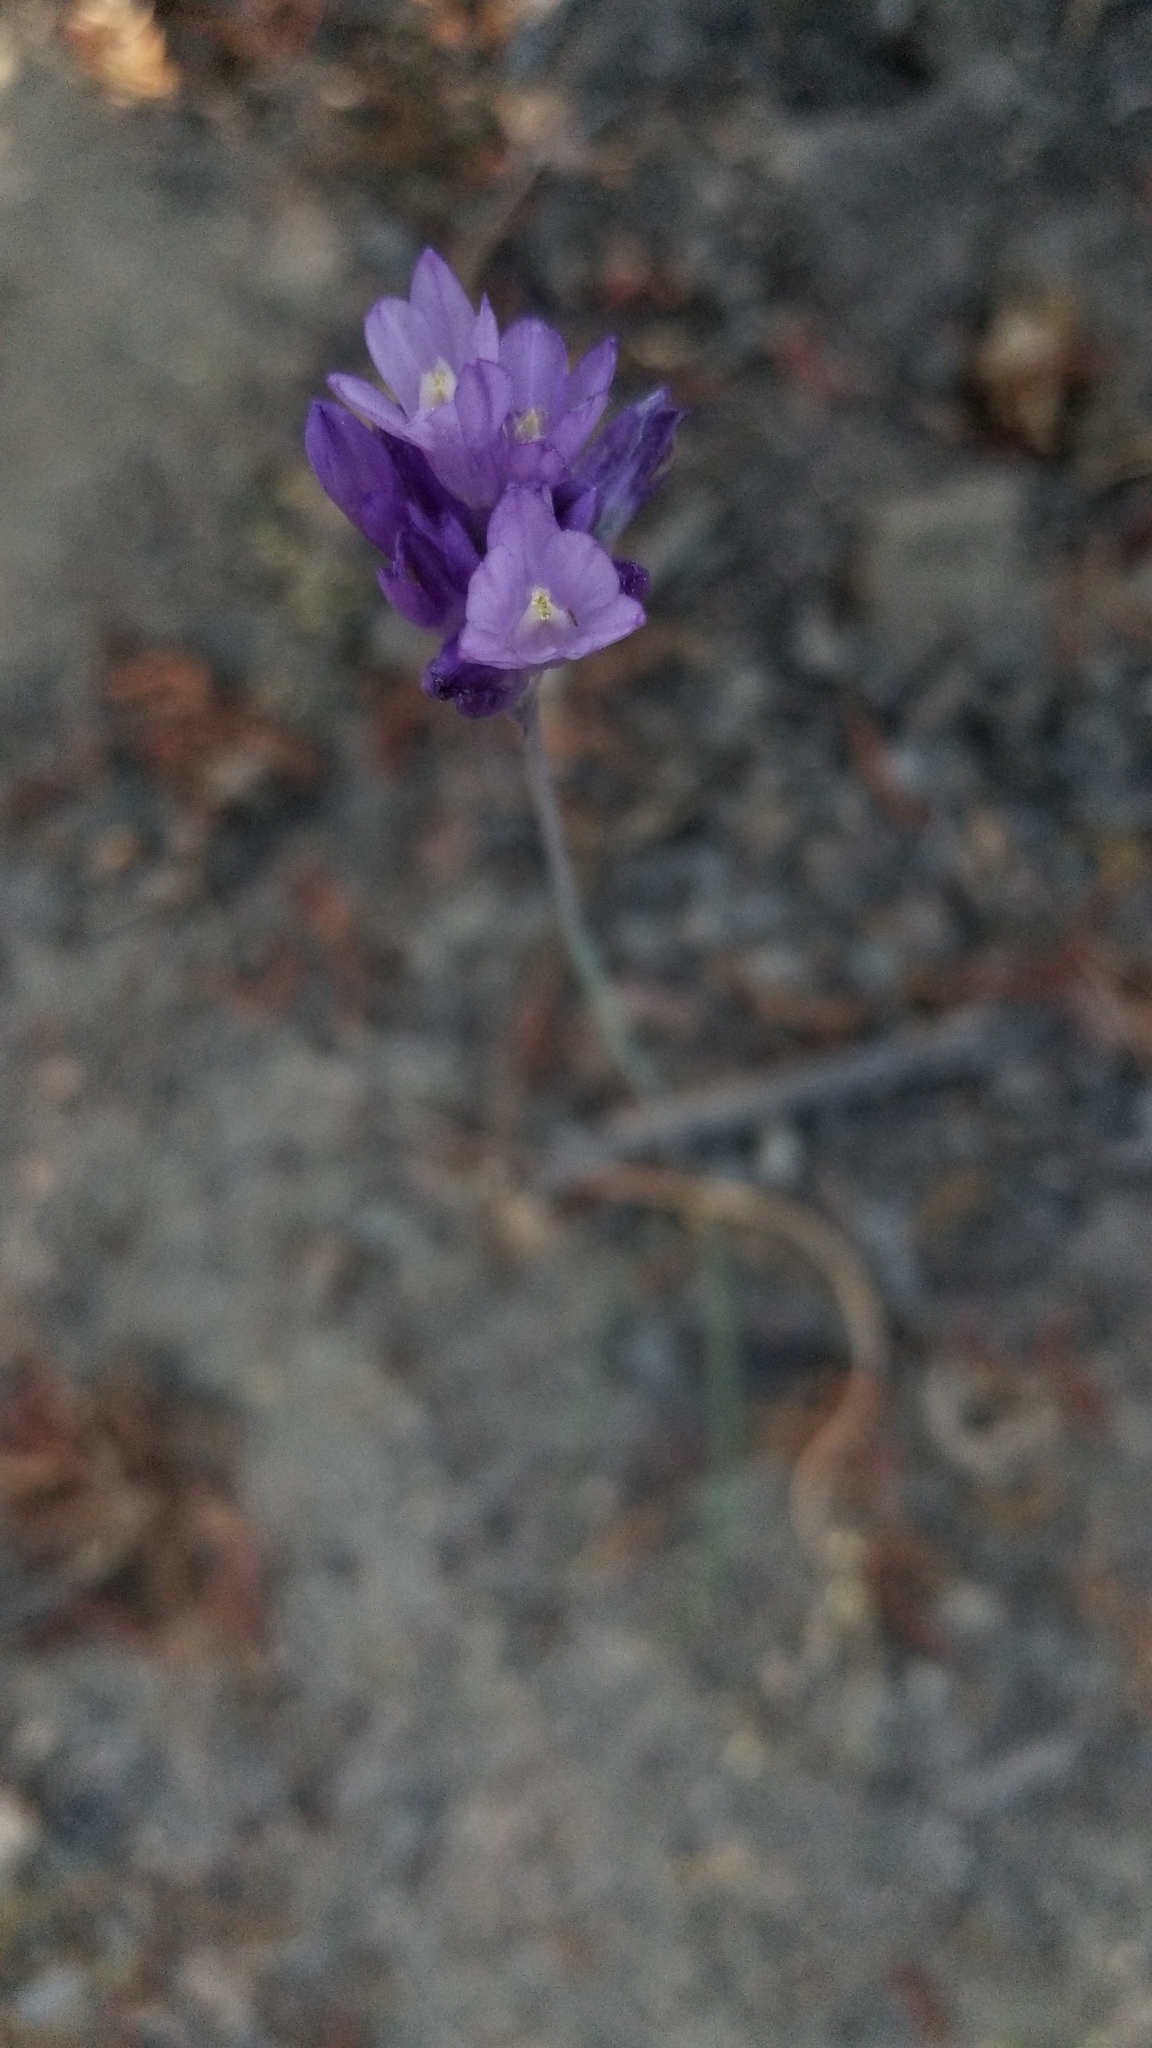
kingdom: Plantae
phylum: Tracheophyta
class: Liliopsida
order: Asparagales
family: Asparagaceae
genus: Dipterostemon
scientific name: Dipterostemon capitatus
